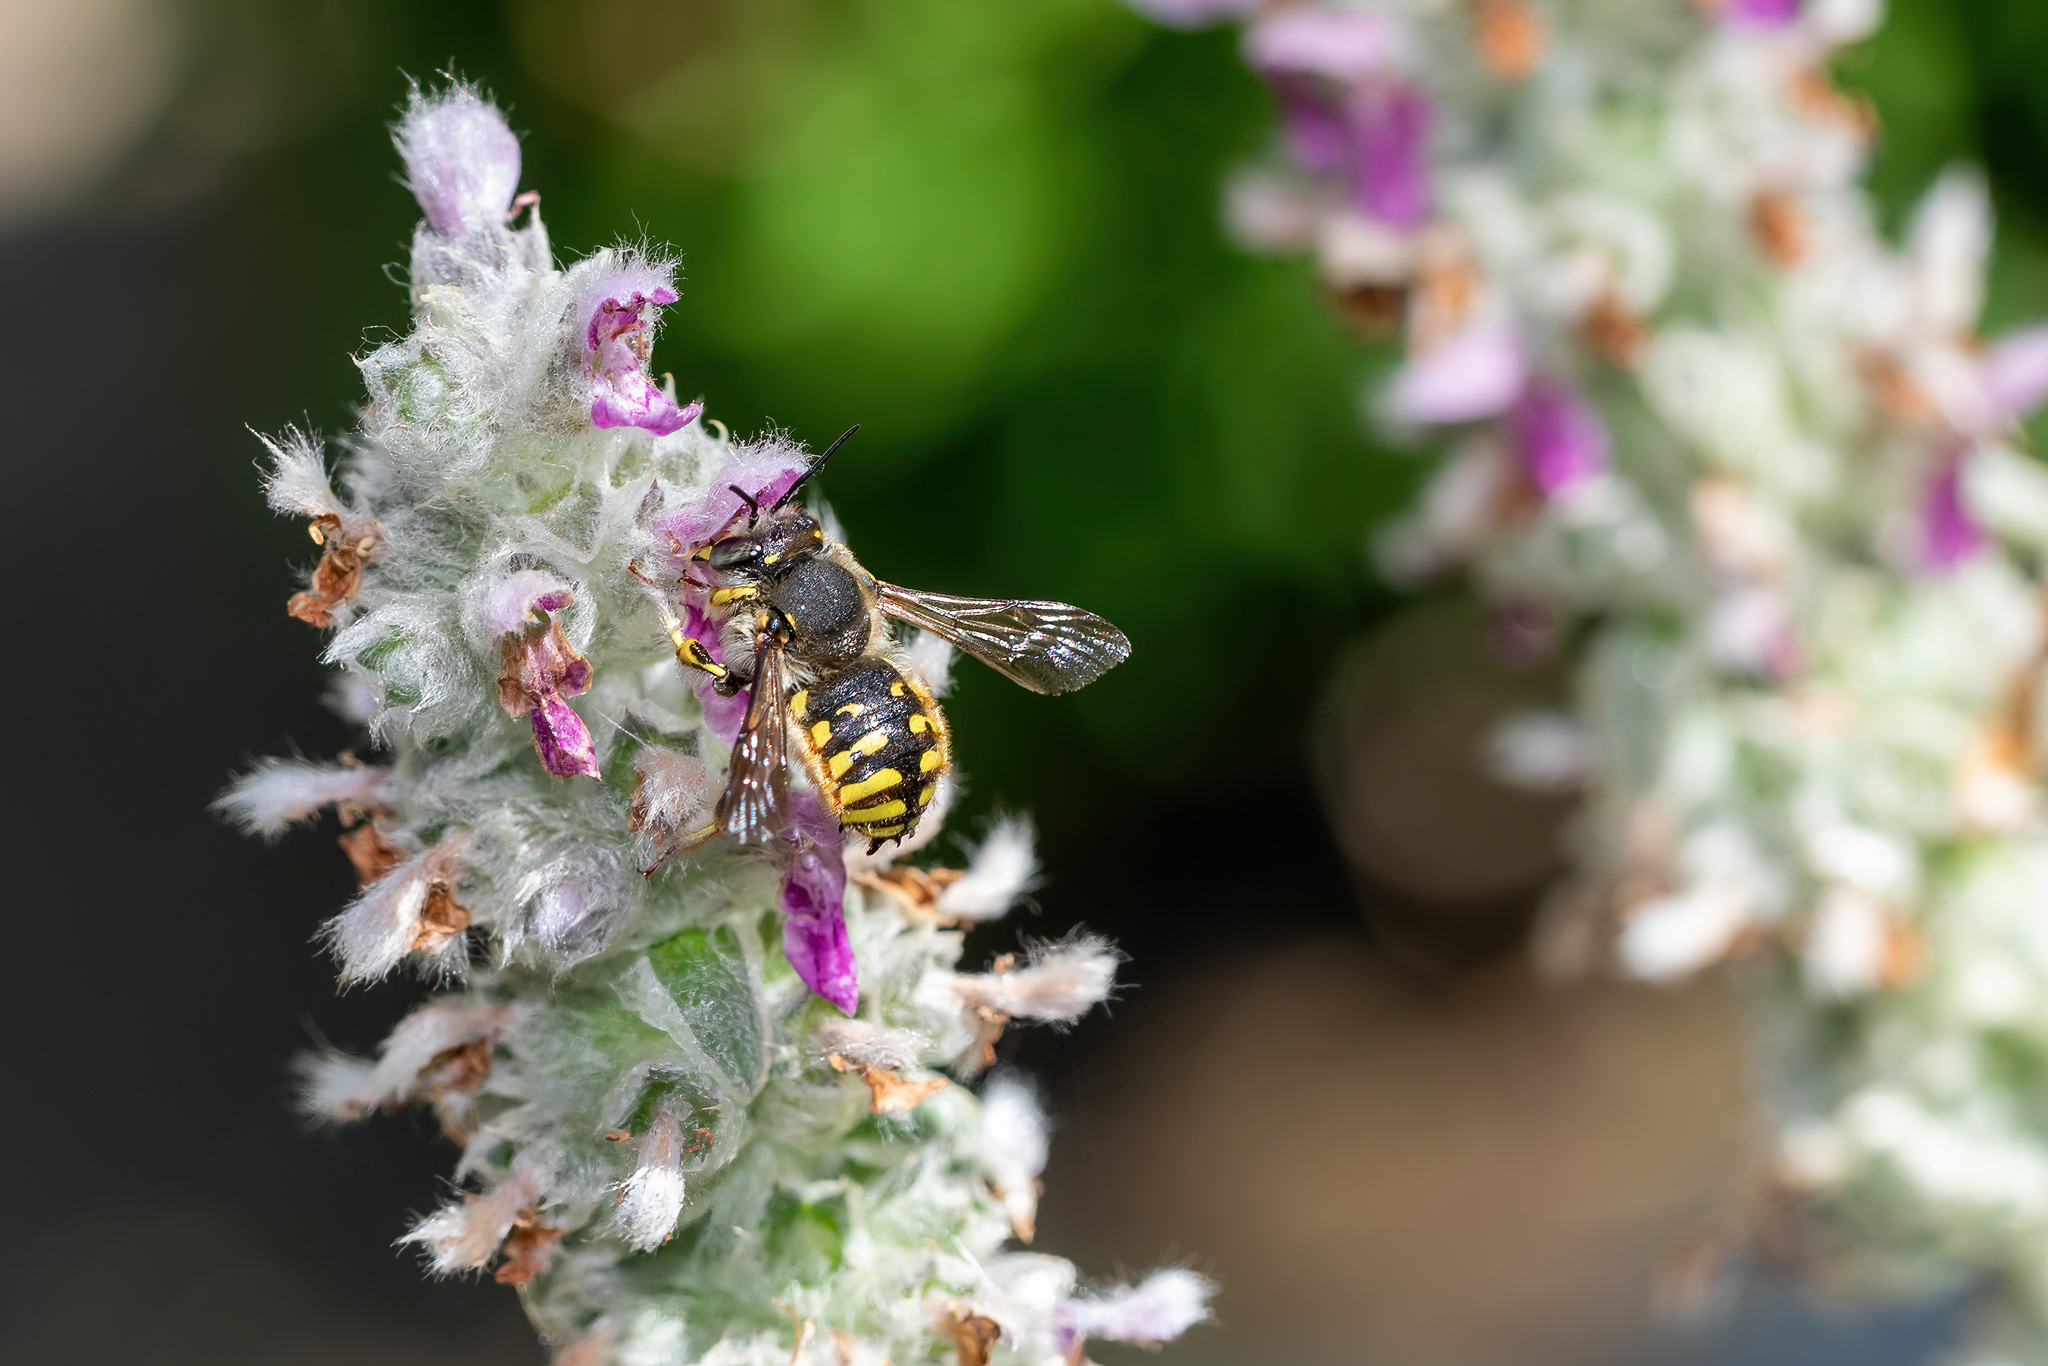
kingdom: Animalia
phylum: Arthropoda
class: Insecta
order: Hymenoptera
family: Megachilidae
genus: Anthidium
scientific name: Anthidium manicatum
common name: Wool carder bee
